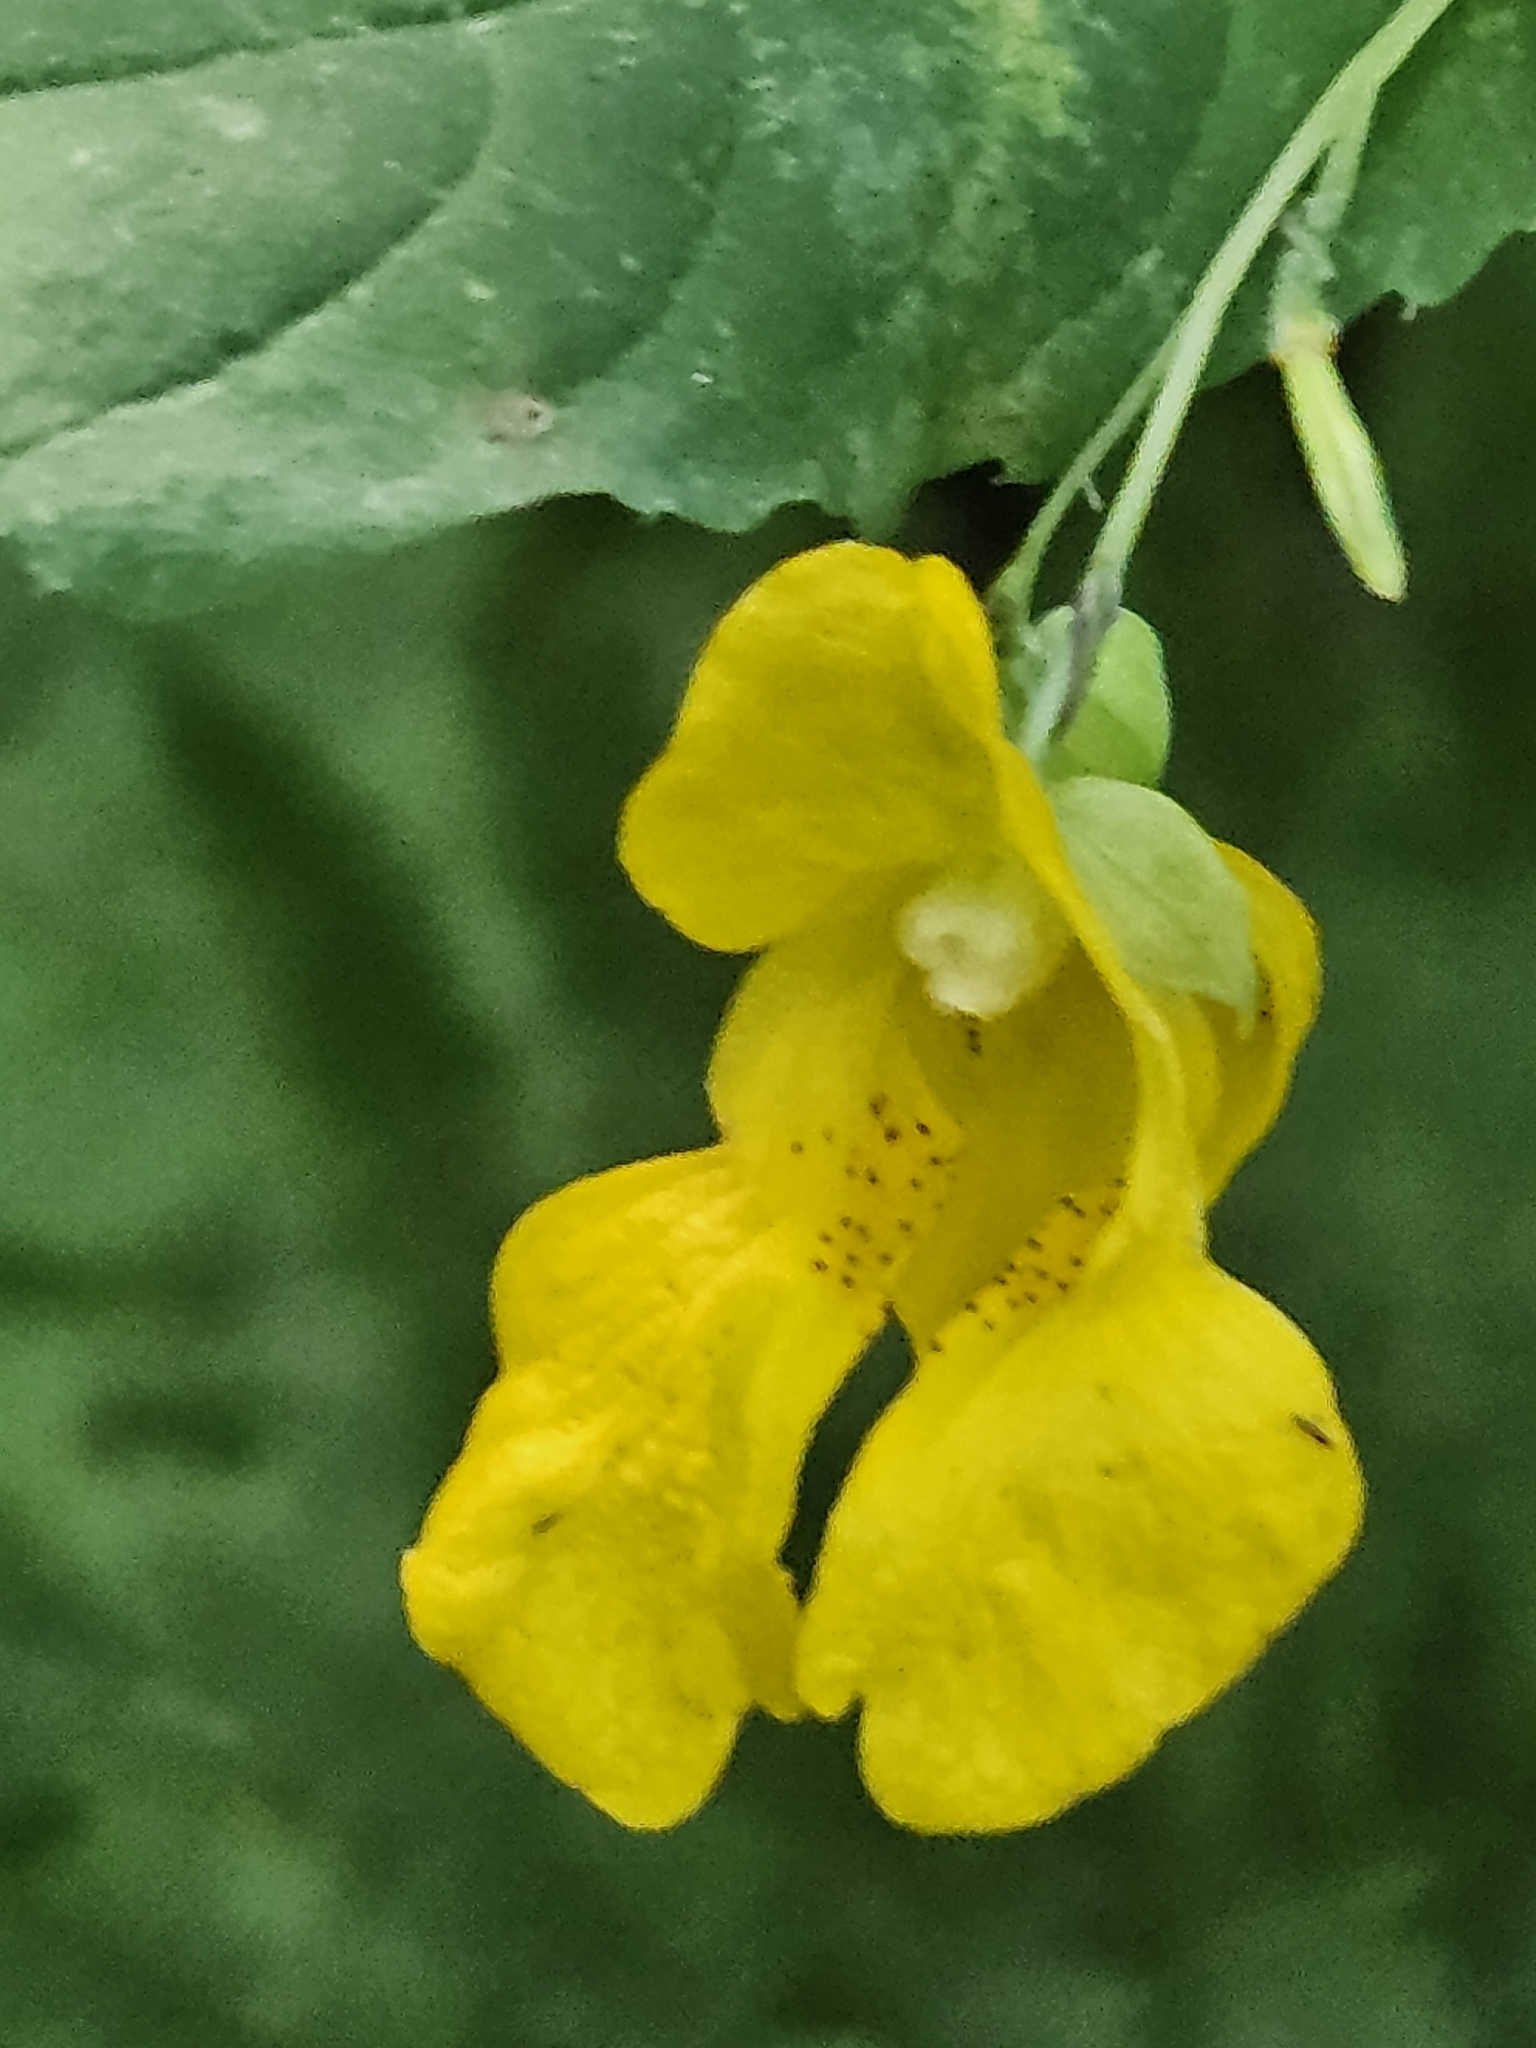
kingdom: Plantae
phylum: Tracheophyta
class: Magnoliopsida
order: Ericales
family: Balsaminaceae
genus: Impatiens
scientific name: Impatiens pallida
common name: Pale snapweed
